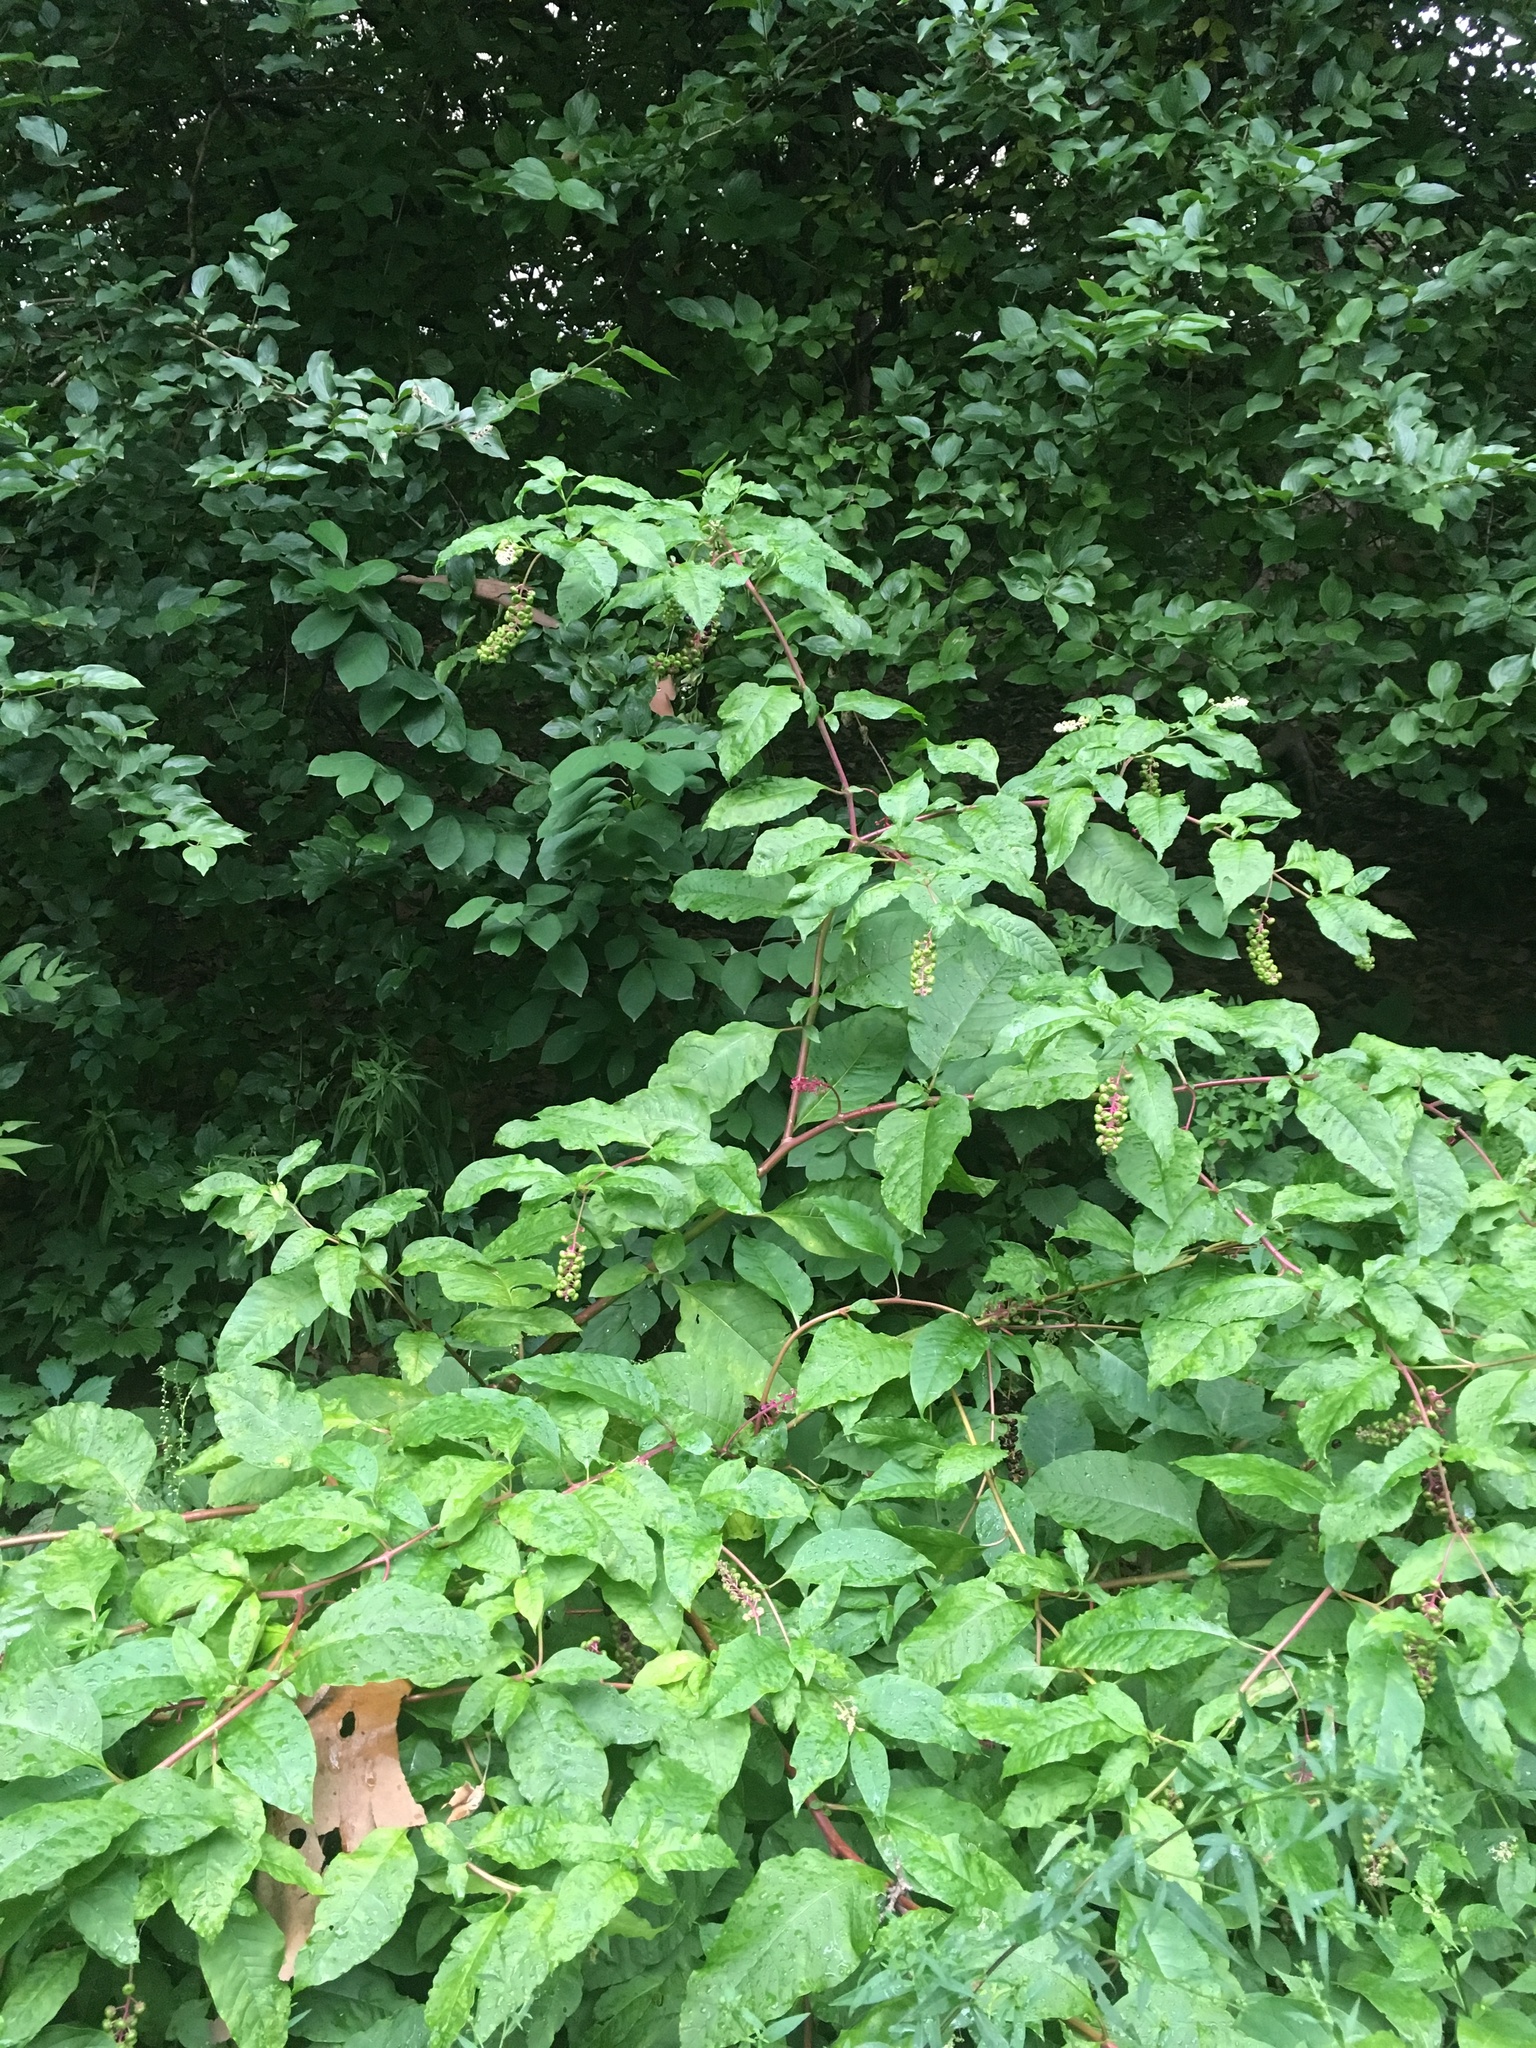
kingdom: Plantae
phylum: Tracheophyta
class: Magnoliopsida
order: Caryophyllales
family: Phytolaccaceae
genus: Phytolacca
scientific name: Phytolacca americana
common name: American pokeweed
